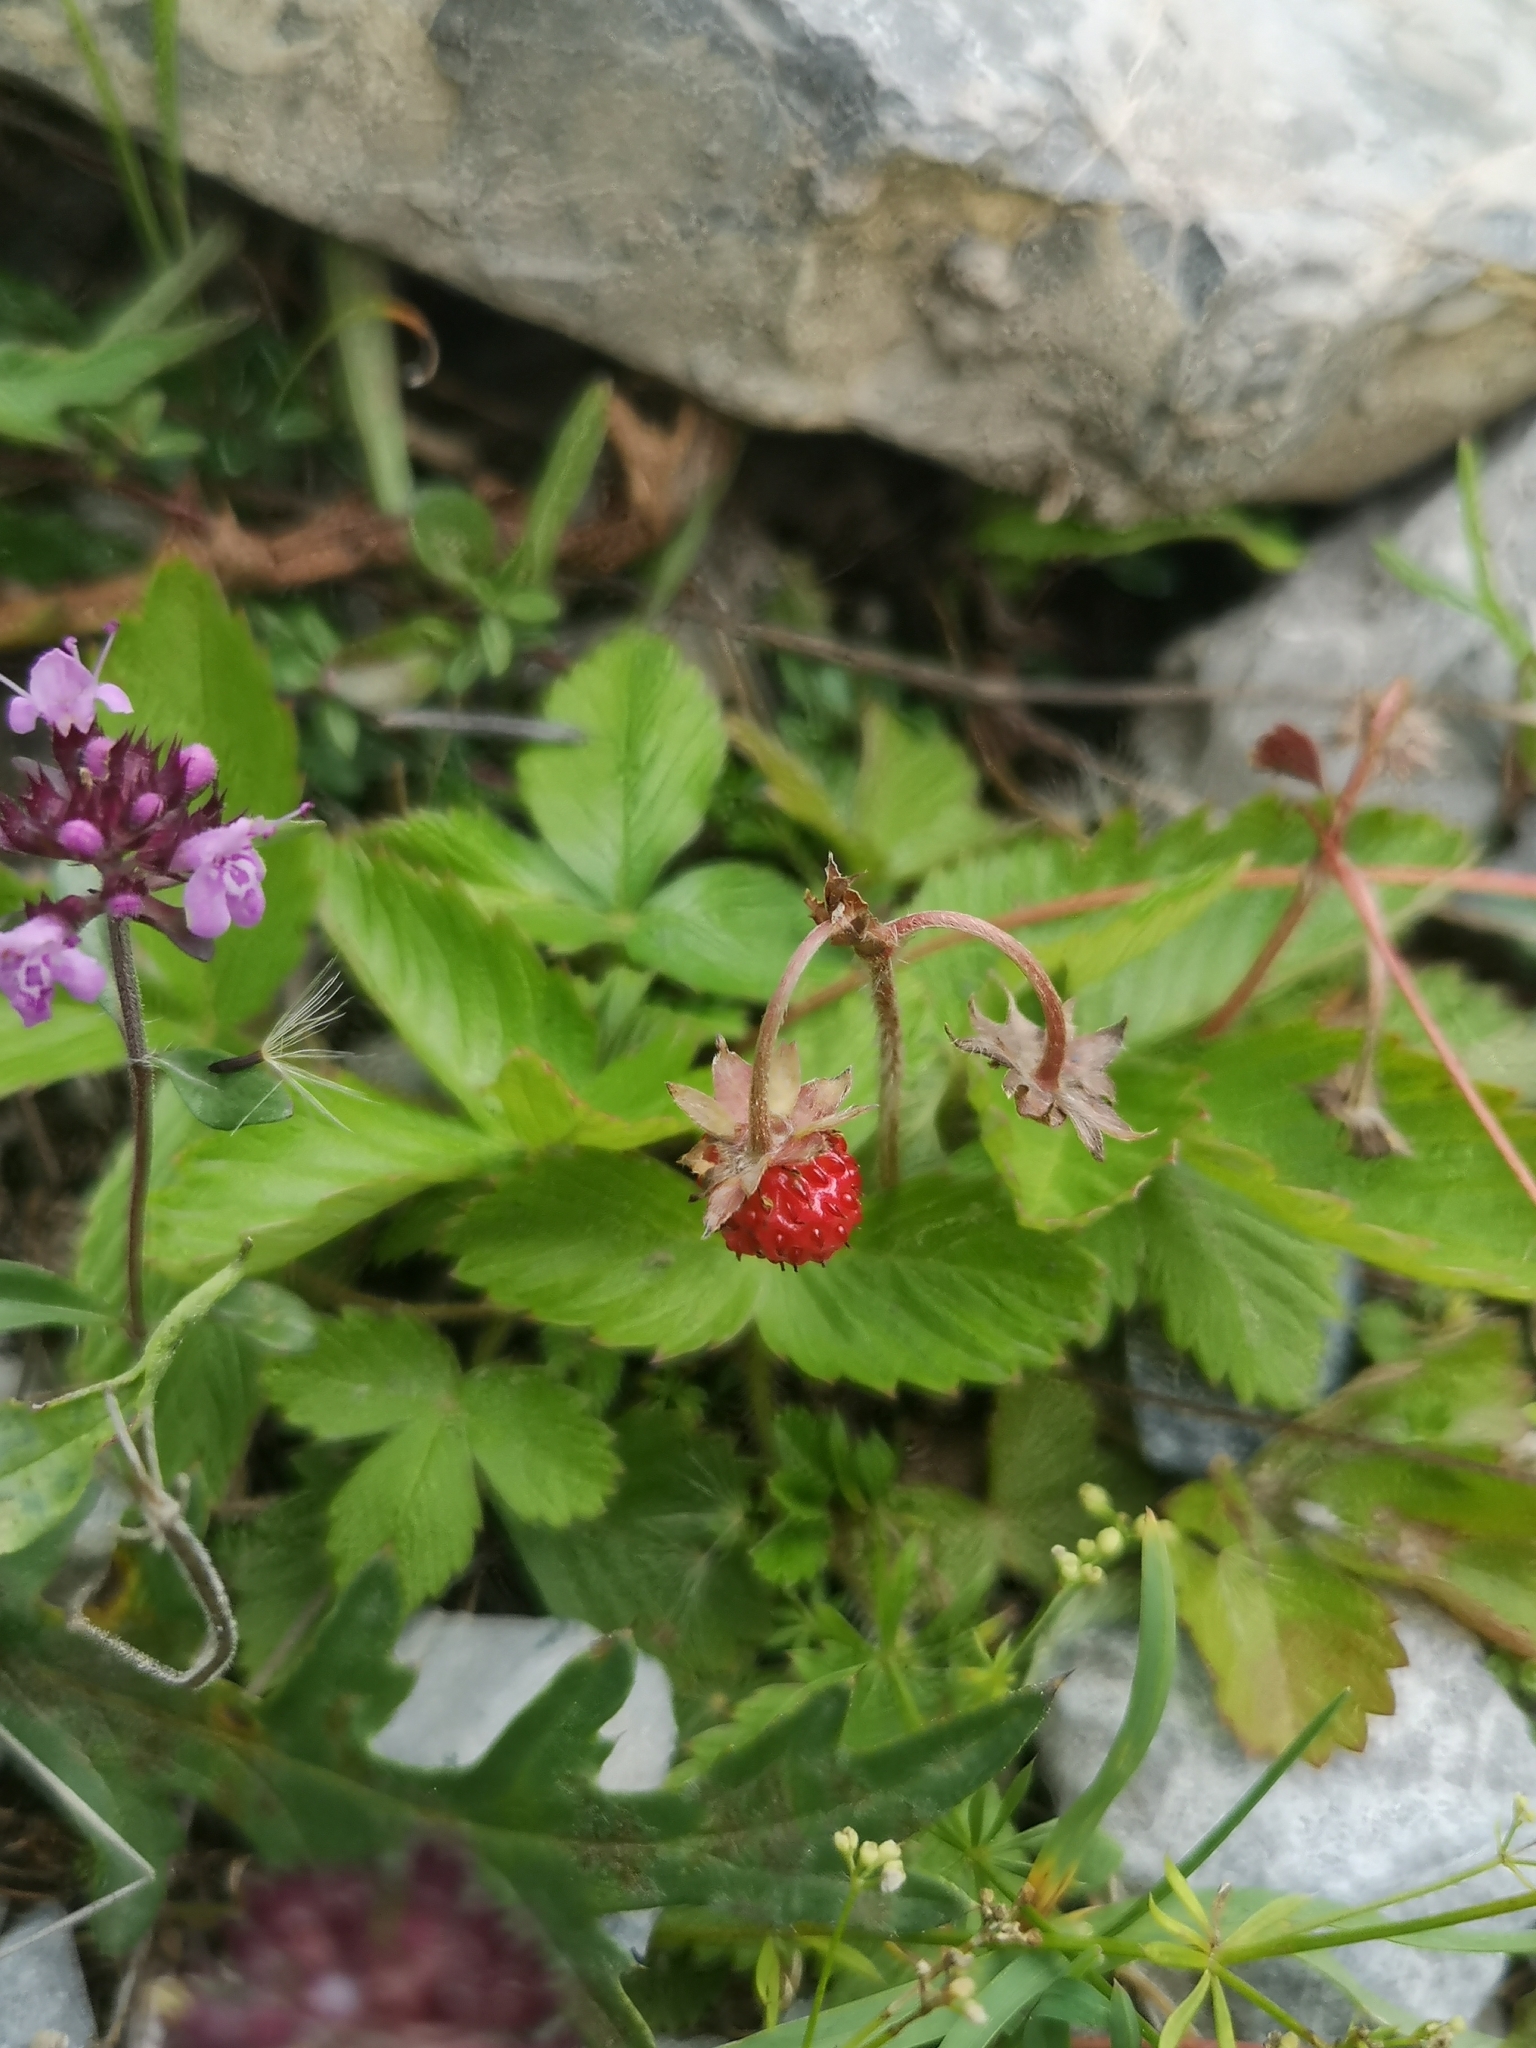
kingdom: Plantae
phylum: Tracheophyta
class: Magnoliopsida
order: Rosales
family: Rosaceae
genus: Fragaria
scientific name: Fragaria vesca
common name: Wild strawberry
